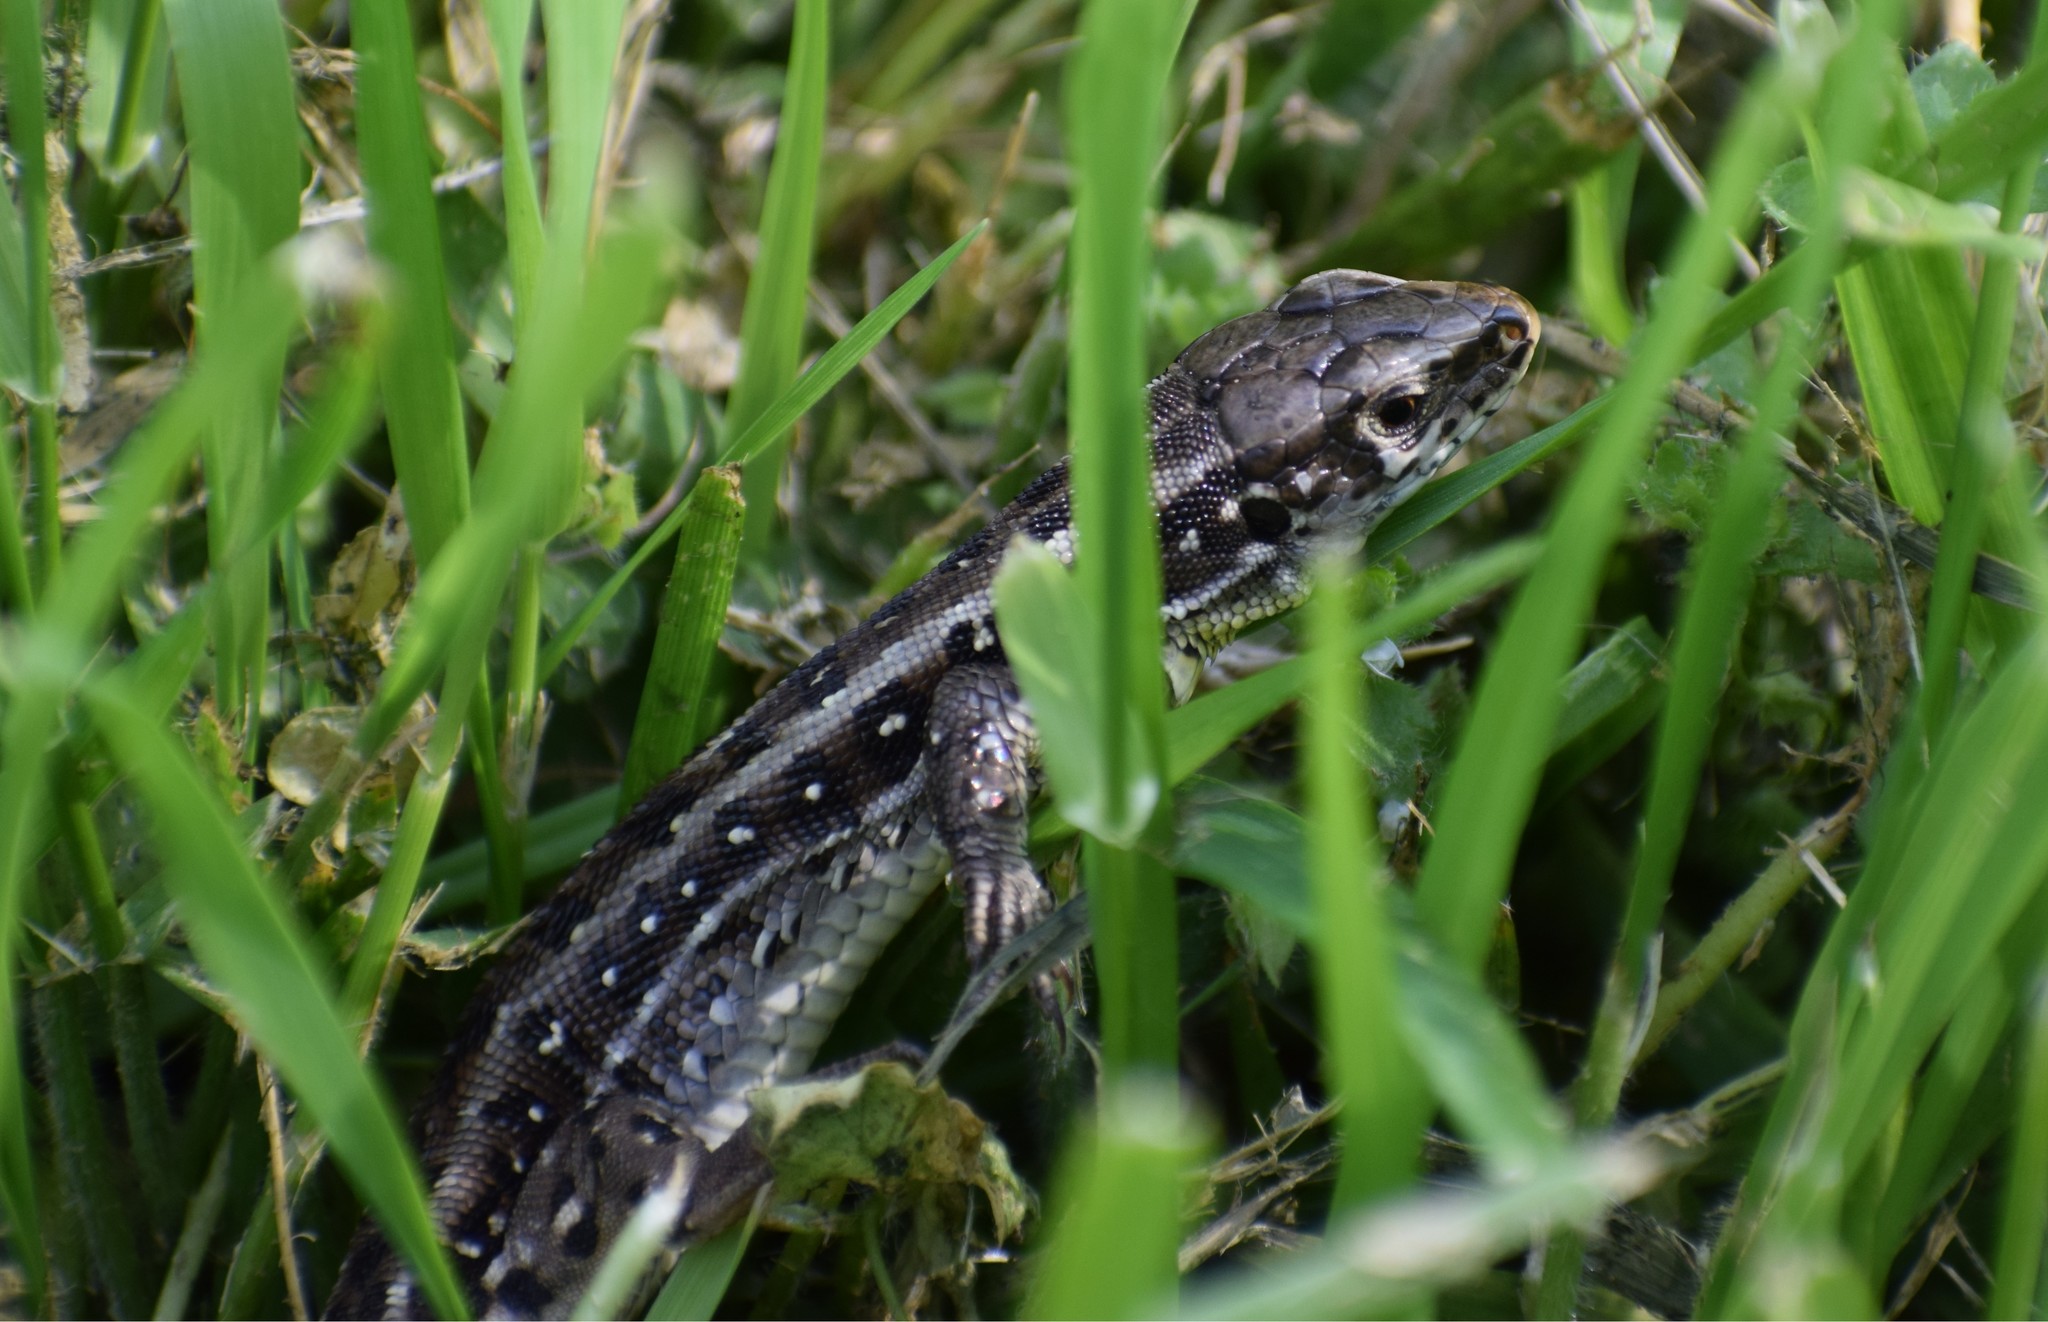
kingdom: Animalia
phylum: Chordata
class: Squamata
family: Lacertidae
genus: Lacerta
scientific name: Lacerta agilis
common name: Sand lizard
